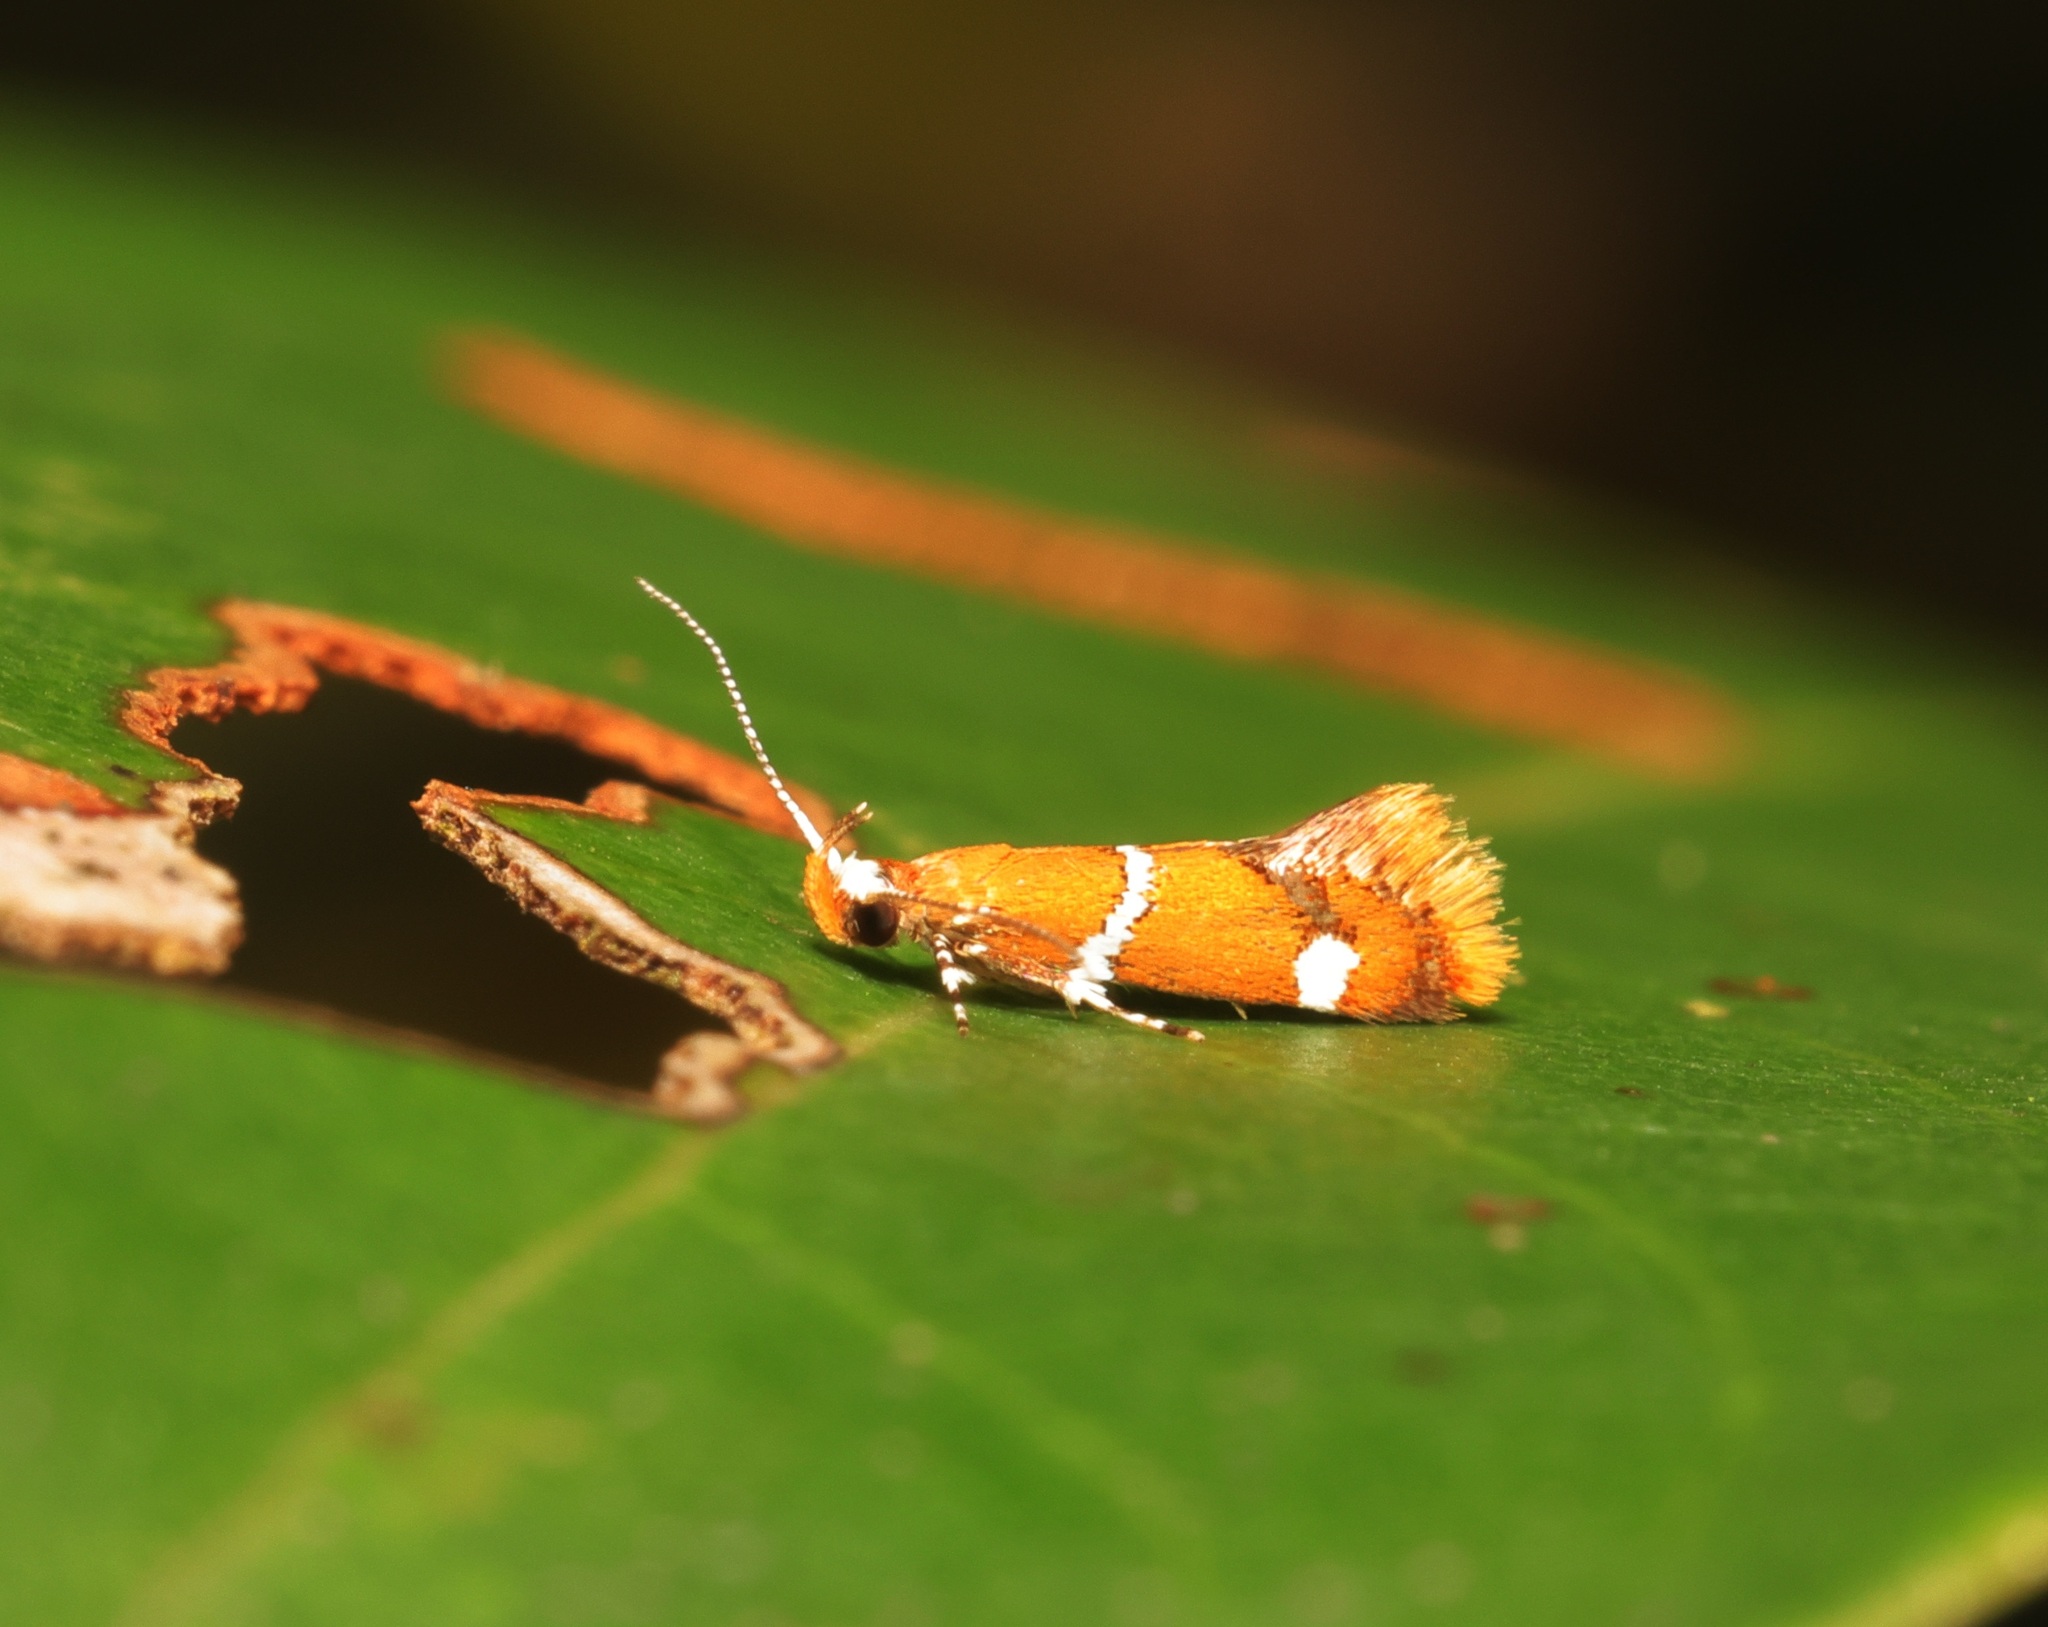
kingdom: Animalia
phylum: Arthropoda
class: Insecta
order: Lepidoptera
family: Oecophoridae
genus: Promalactis
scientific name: Promalactis albisquama
